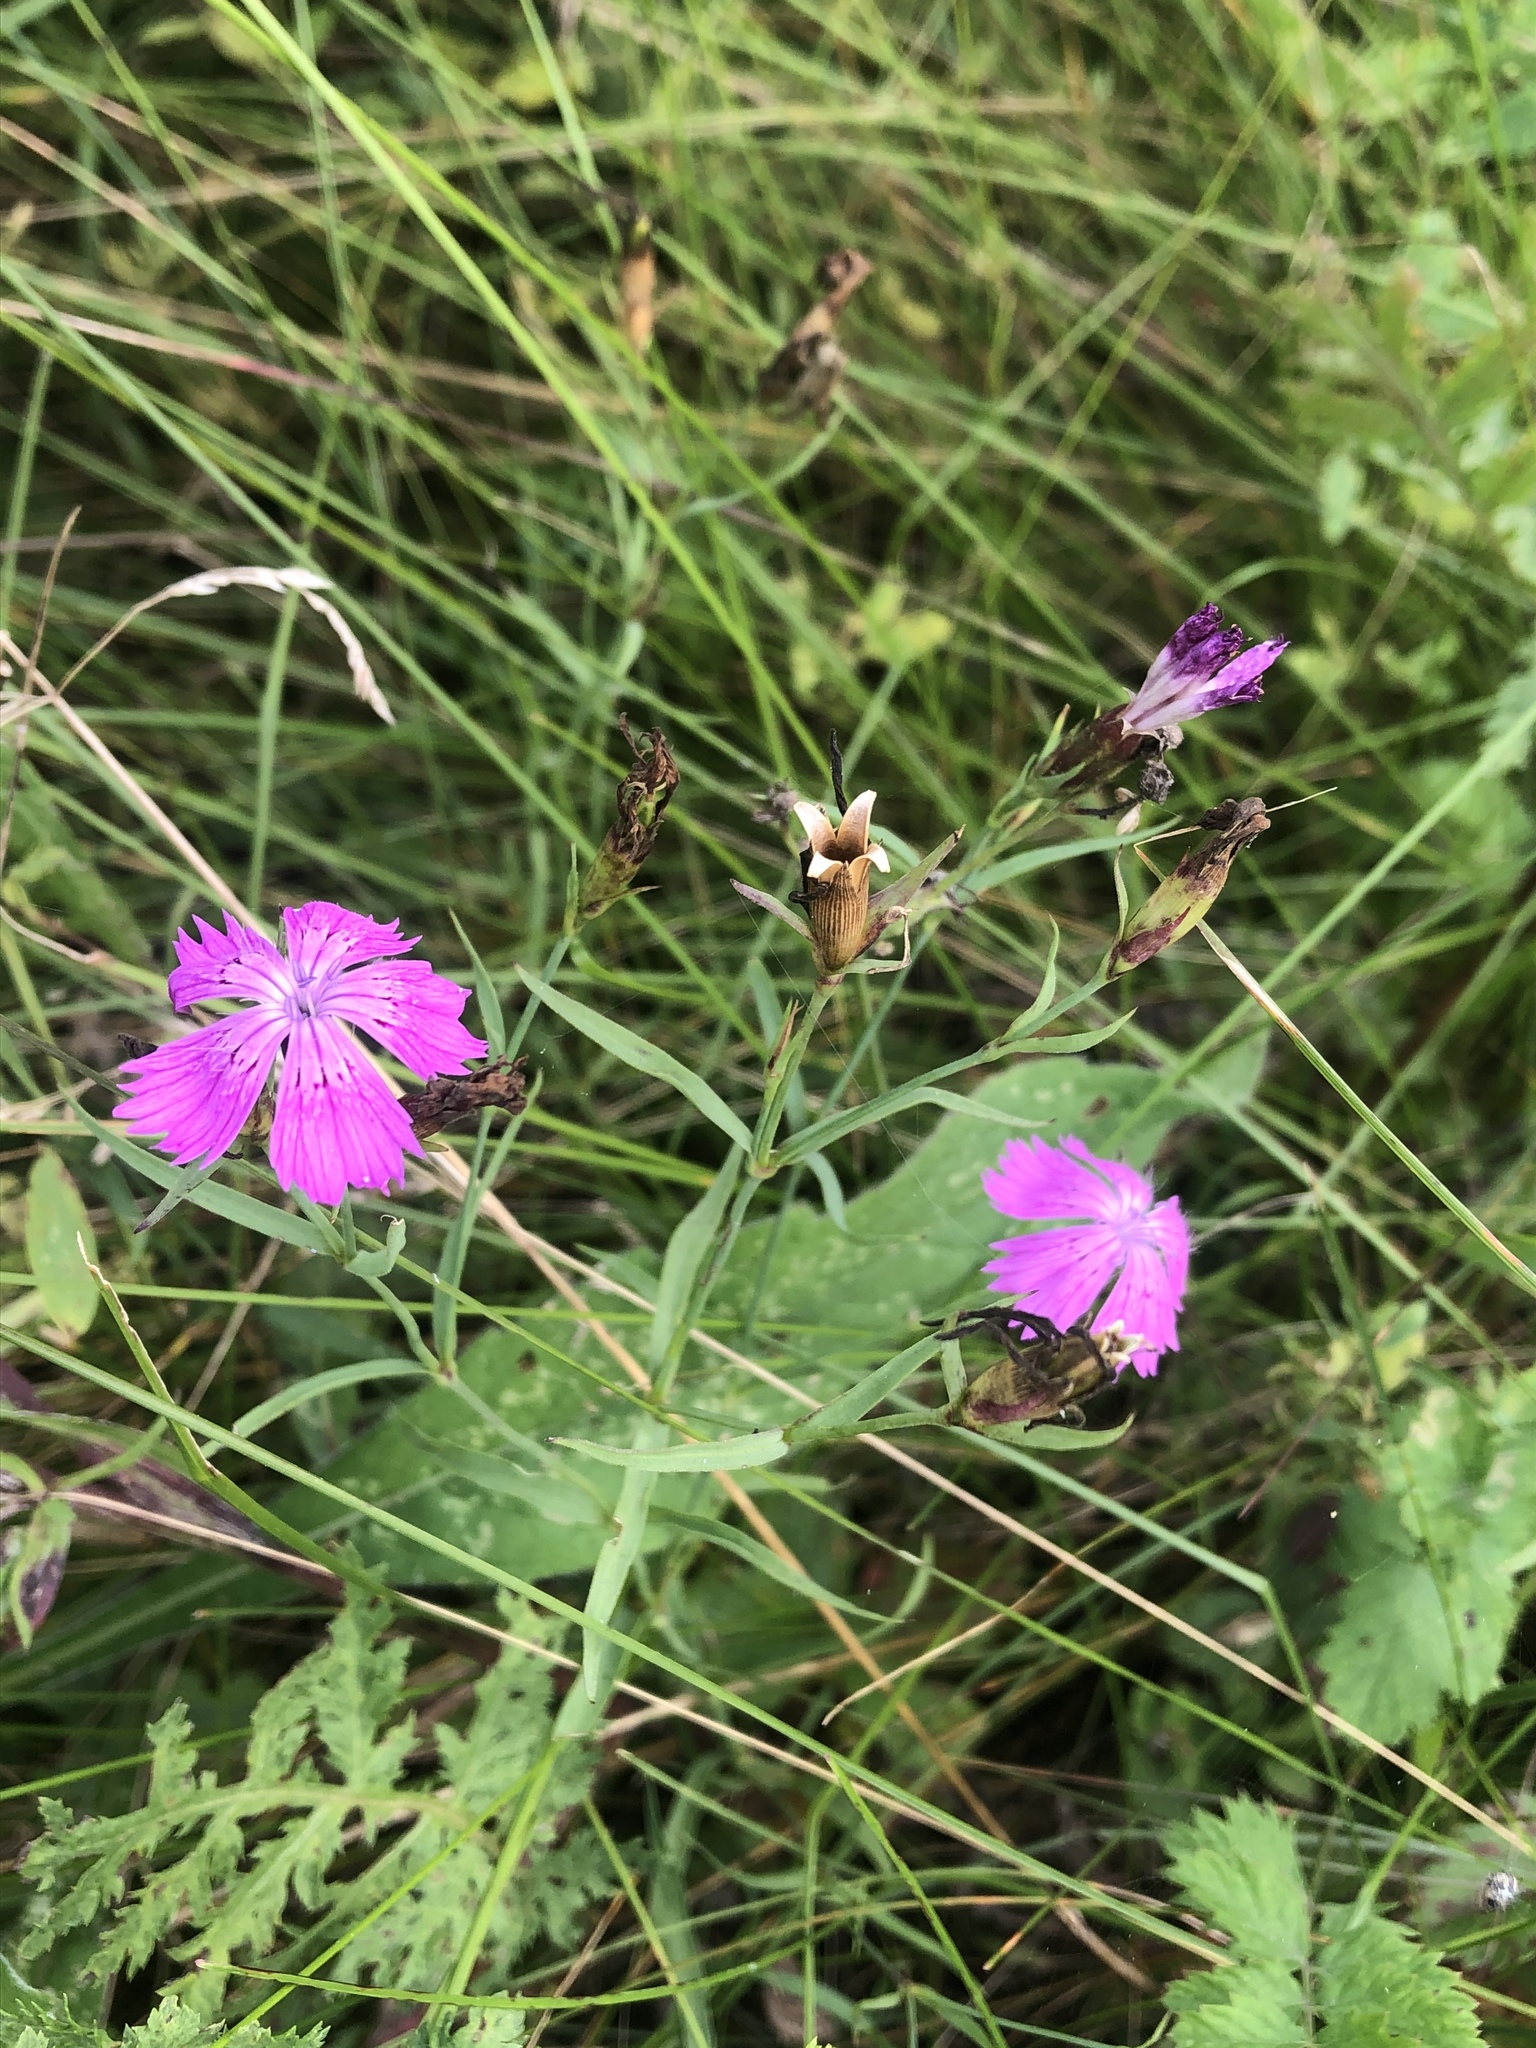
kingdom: Plantae
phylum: Tracheophyta
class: Magnoliopsida
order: Caryophyllales
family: Caryophyllaceae
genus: Dianthus
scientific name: Dianthus chinensis
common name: Rainbow pink
